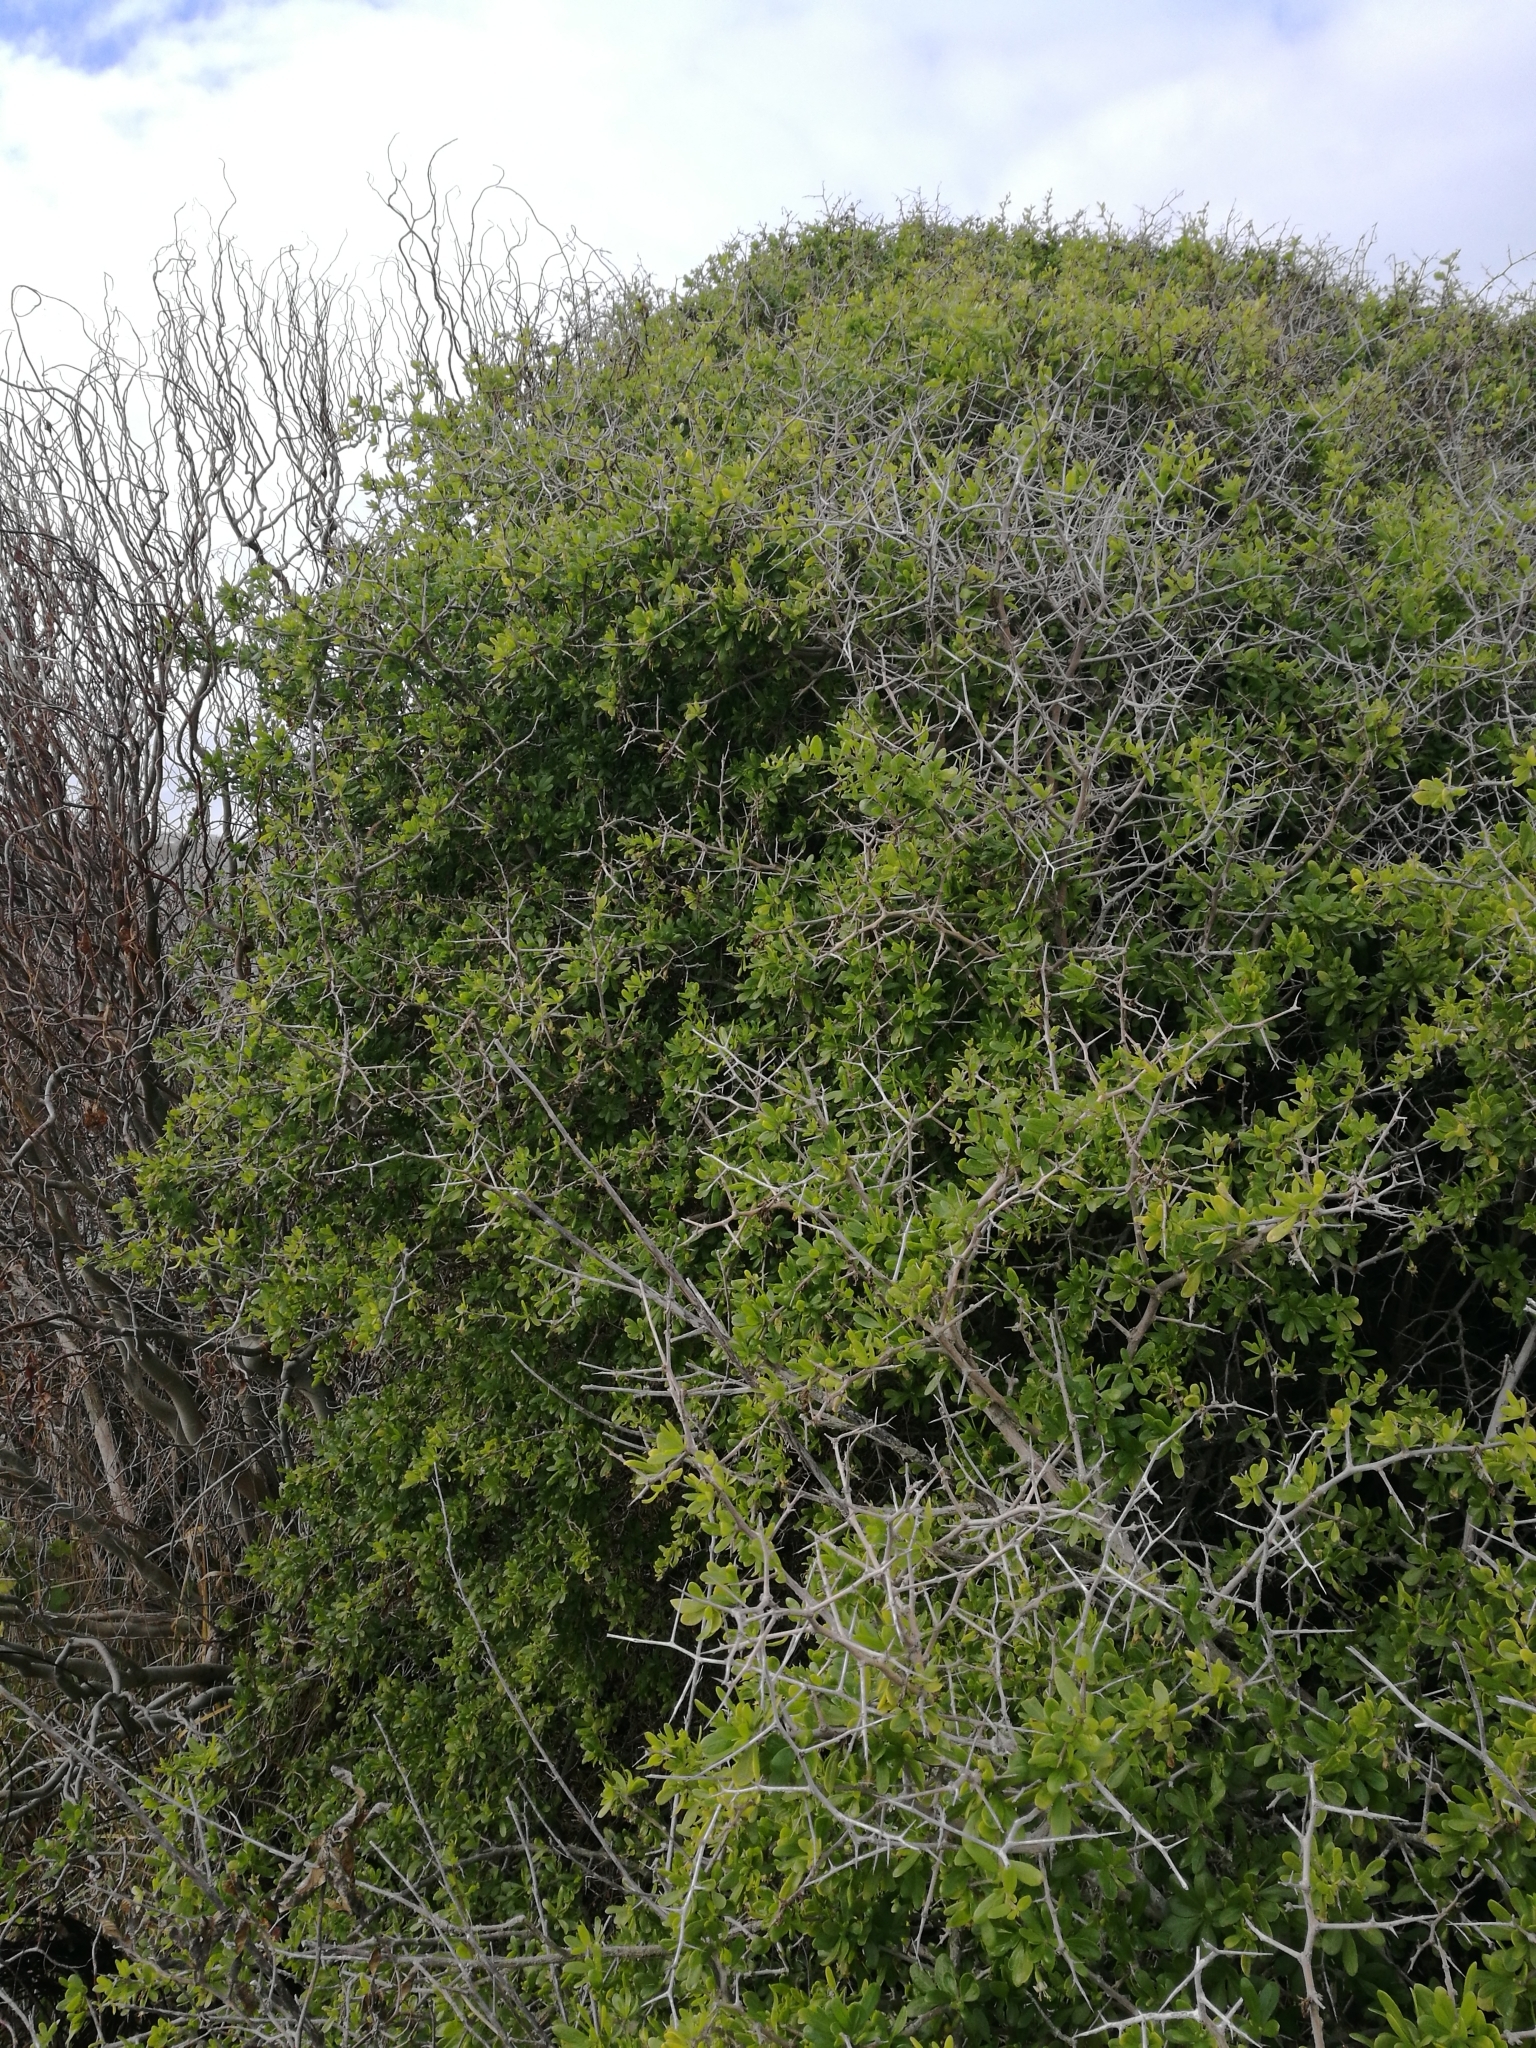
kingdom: Plantae
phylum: Tracheophyta
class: Magnoliopsida
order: Solanales
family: Solanaceae
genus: Lycium
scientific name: Lycium ferocissimum
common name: African boxthorn
